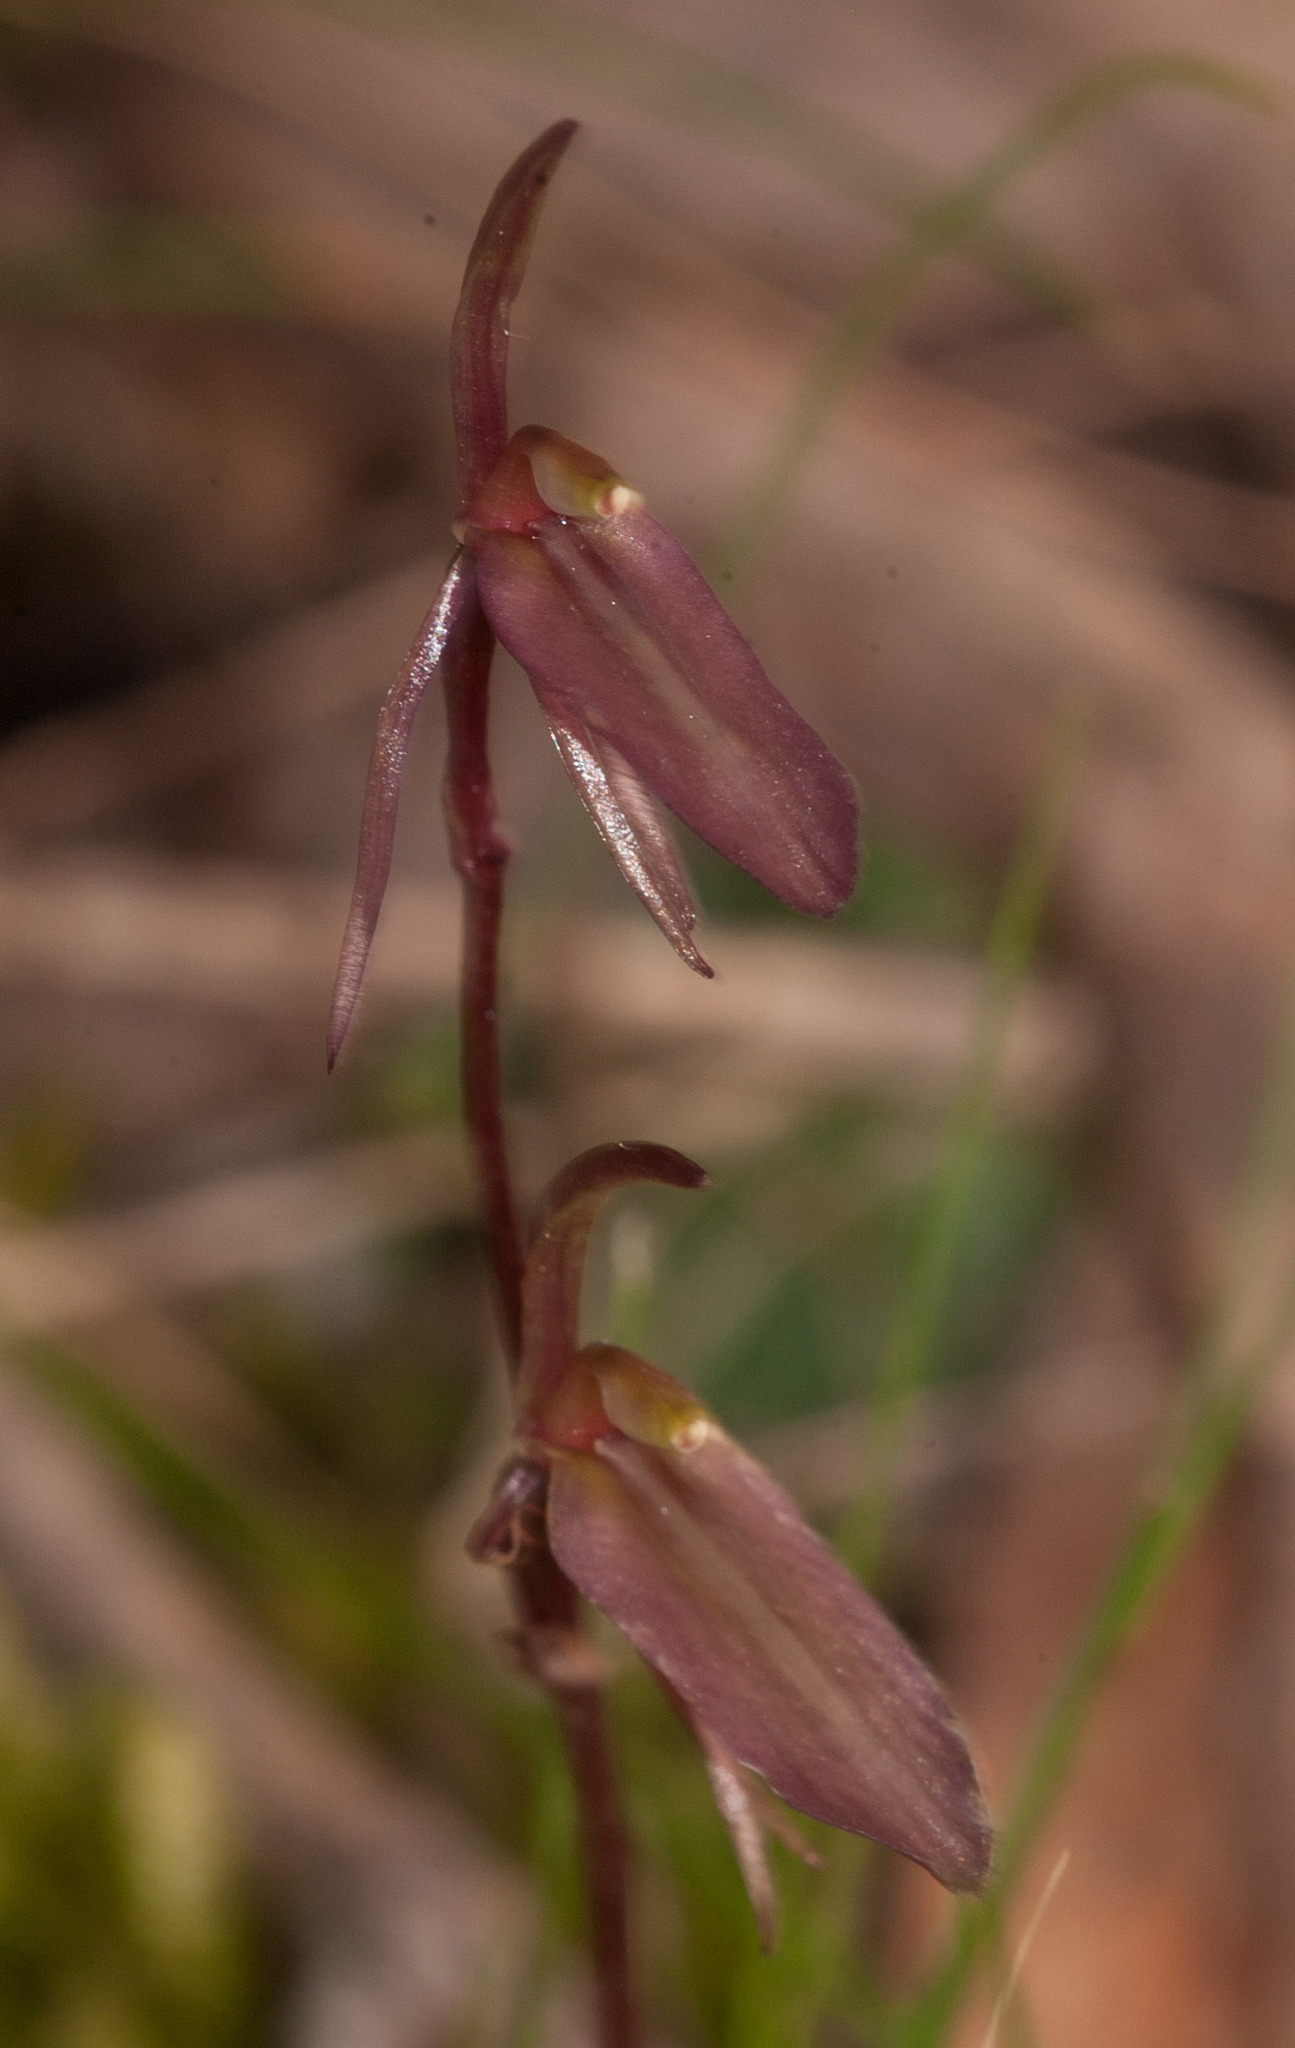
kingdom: Plantae
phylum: Tracheophyta
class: Liliopsida
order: Asparagales
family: Orchidaceae
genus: Cyrtostylis
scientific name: Cyrtostylis reniformis
